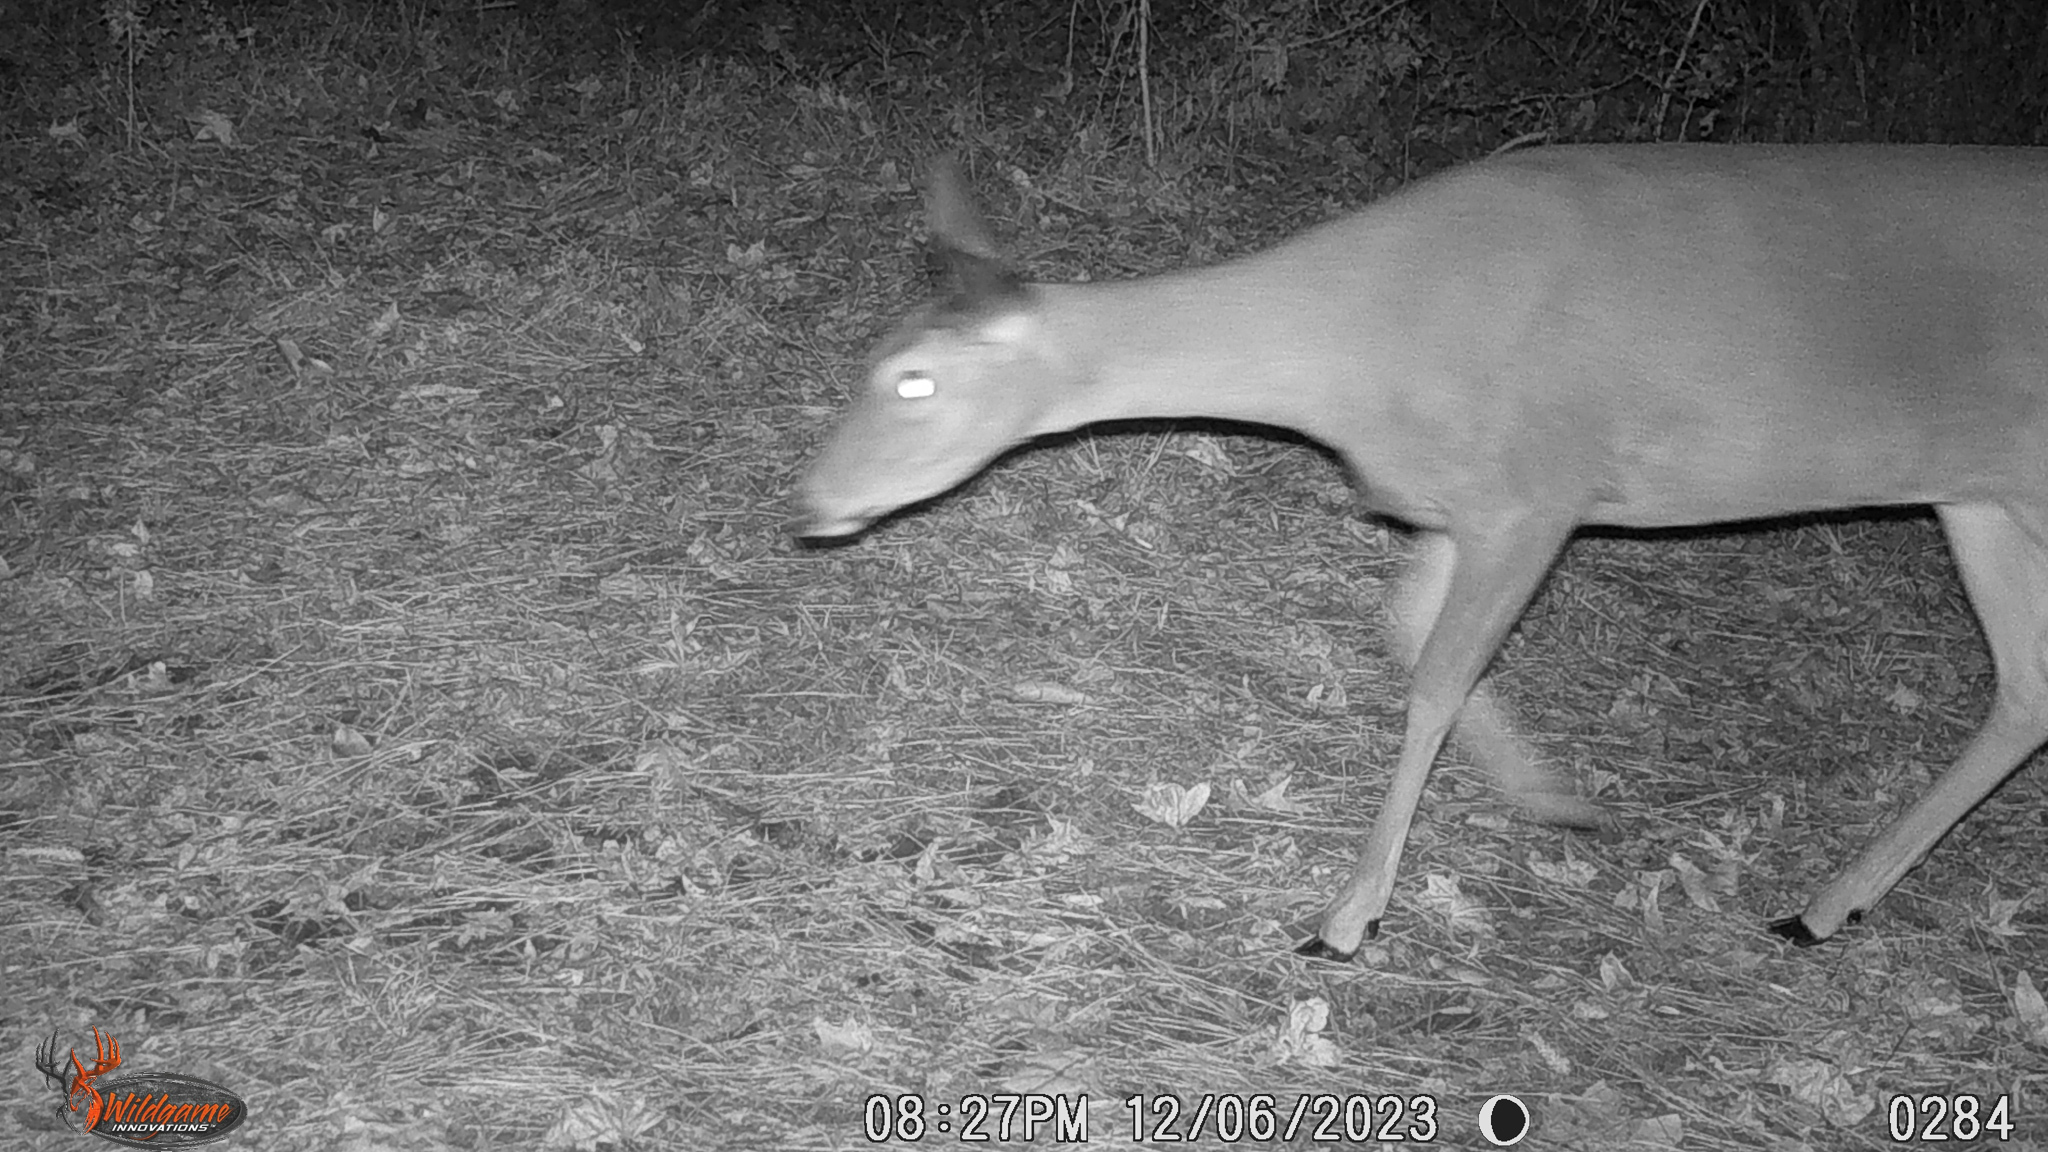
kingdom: Animalia
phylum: Chordata
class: Mammalia
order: Artiodactyla
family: Cervidae
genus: Odocoileus
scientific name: Odocoileus virginianus
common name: White-tailed deer
